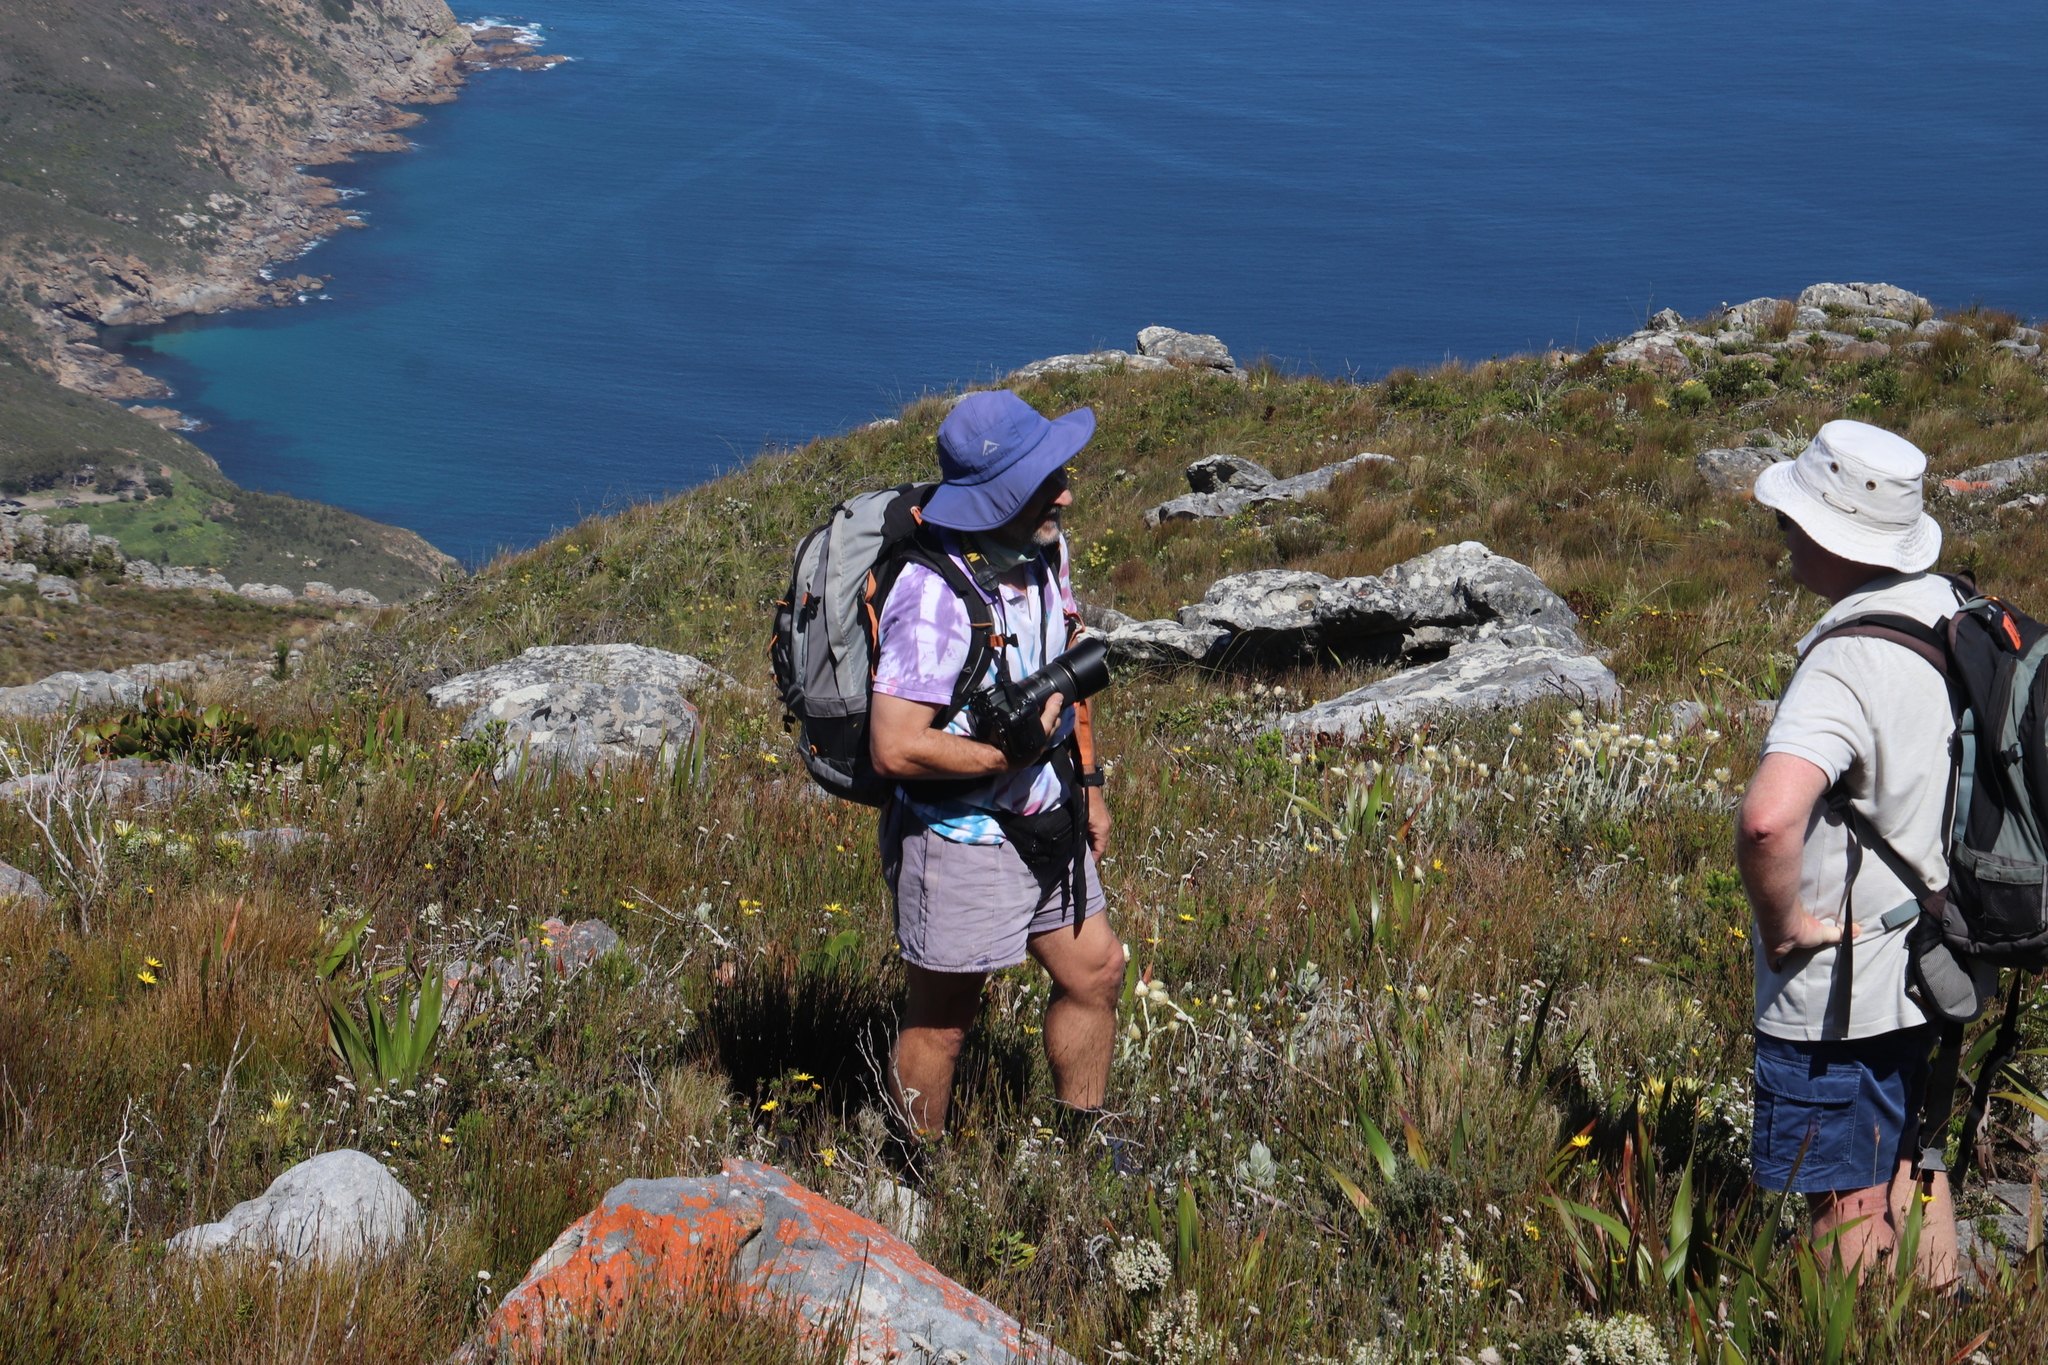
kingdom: Plantae
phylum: Tracheophyta
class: Magnoliopsida
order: Asterales
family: Asteraceae
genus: Syncarpha
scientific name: Syncarpha speciosissima
